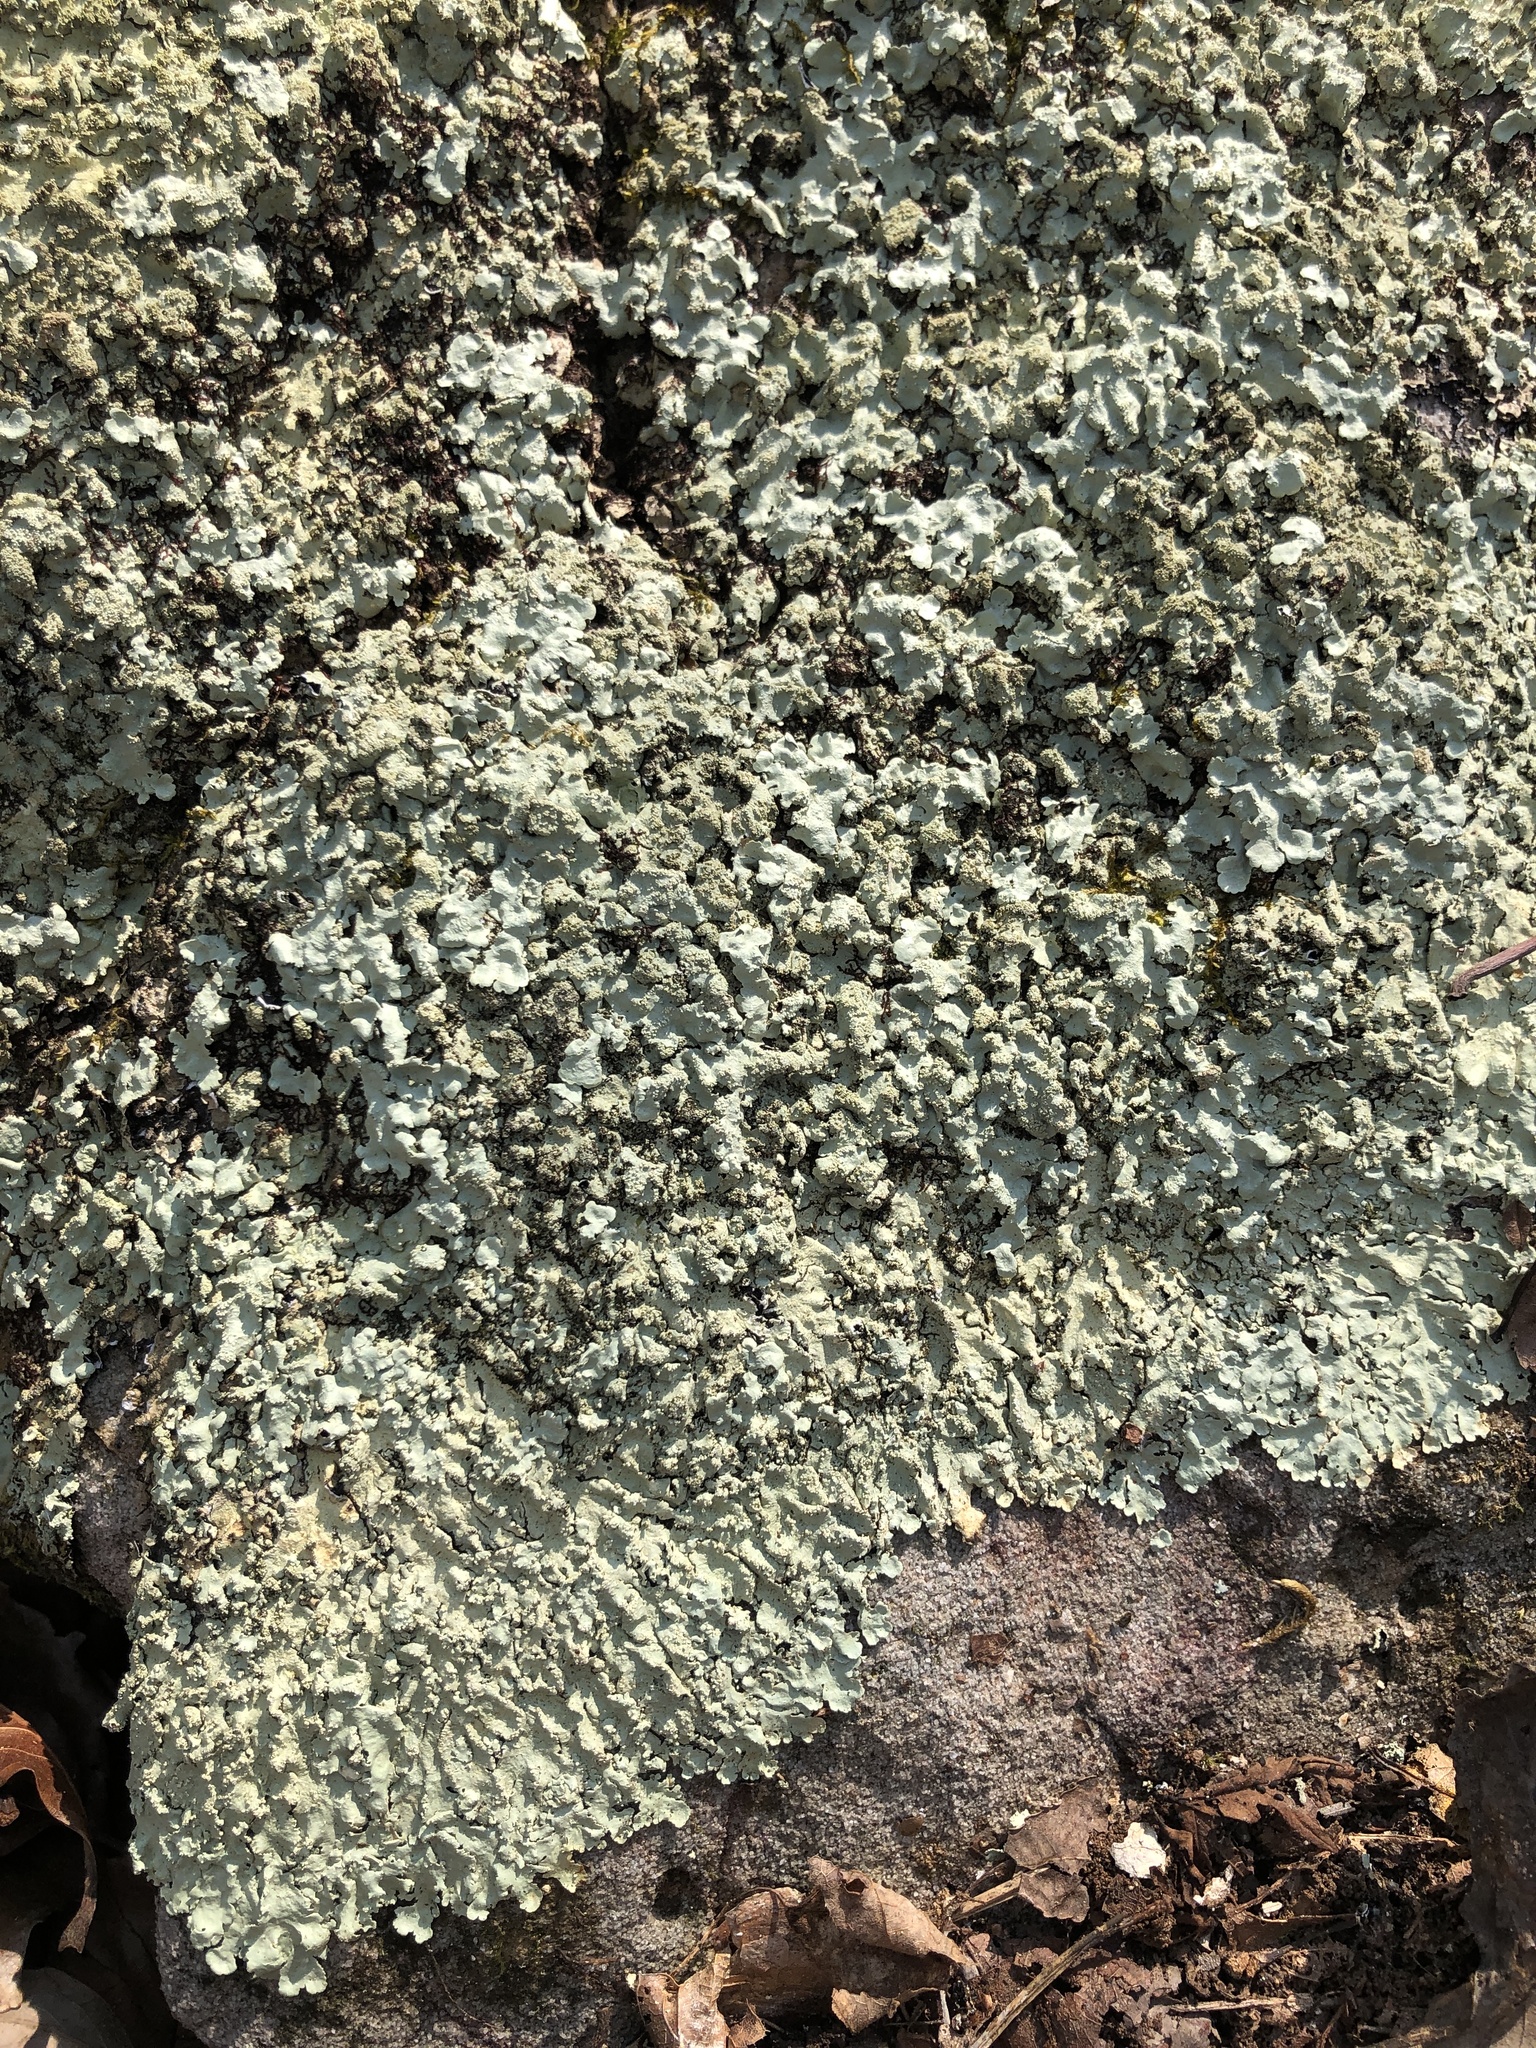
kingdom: Fungi
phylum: Ascomycota
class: Lecanoromycetes
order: Lecanorales
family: Parmeliaceae
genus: Flavoparmelia
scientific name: Flavoparmelia baltimorensis
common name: Rock greenshield
